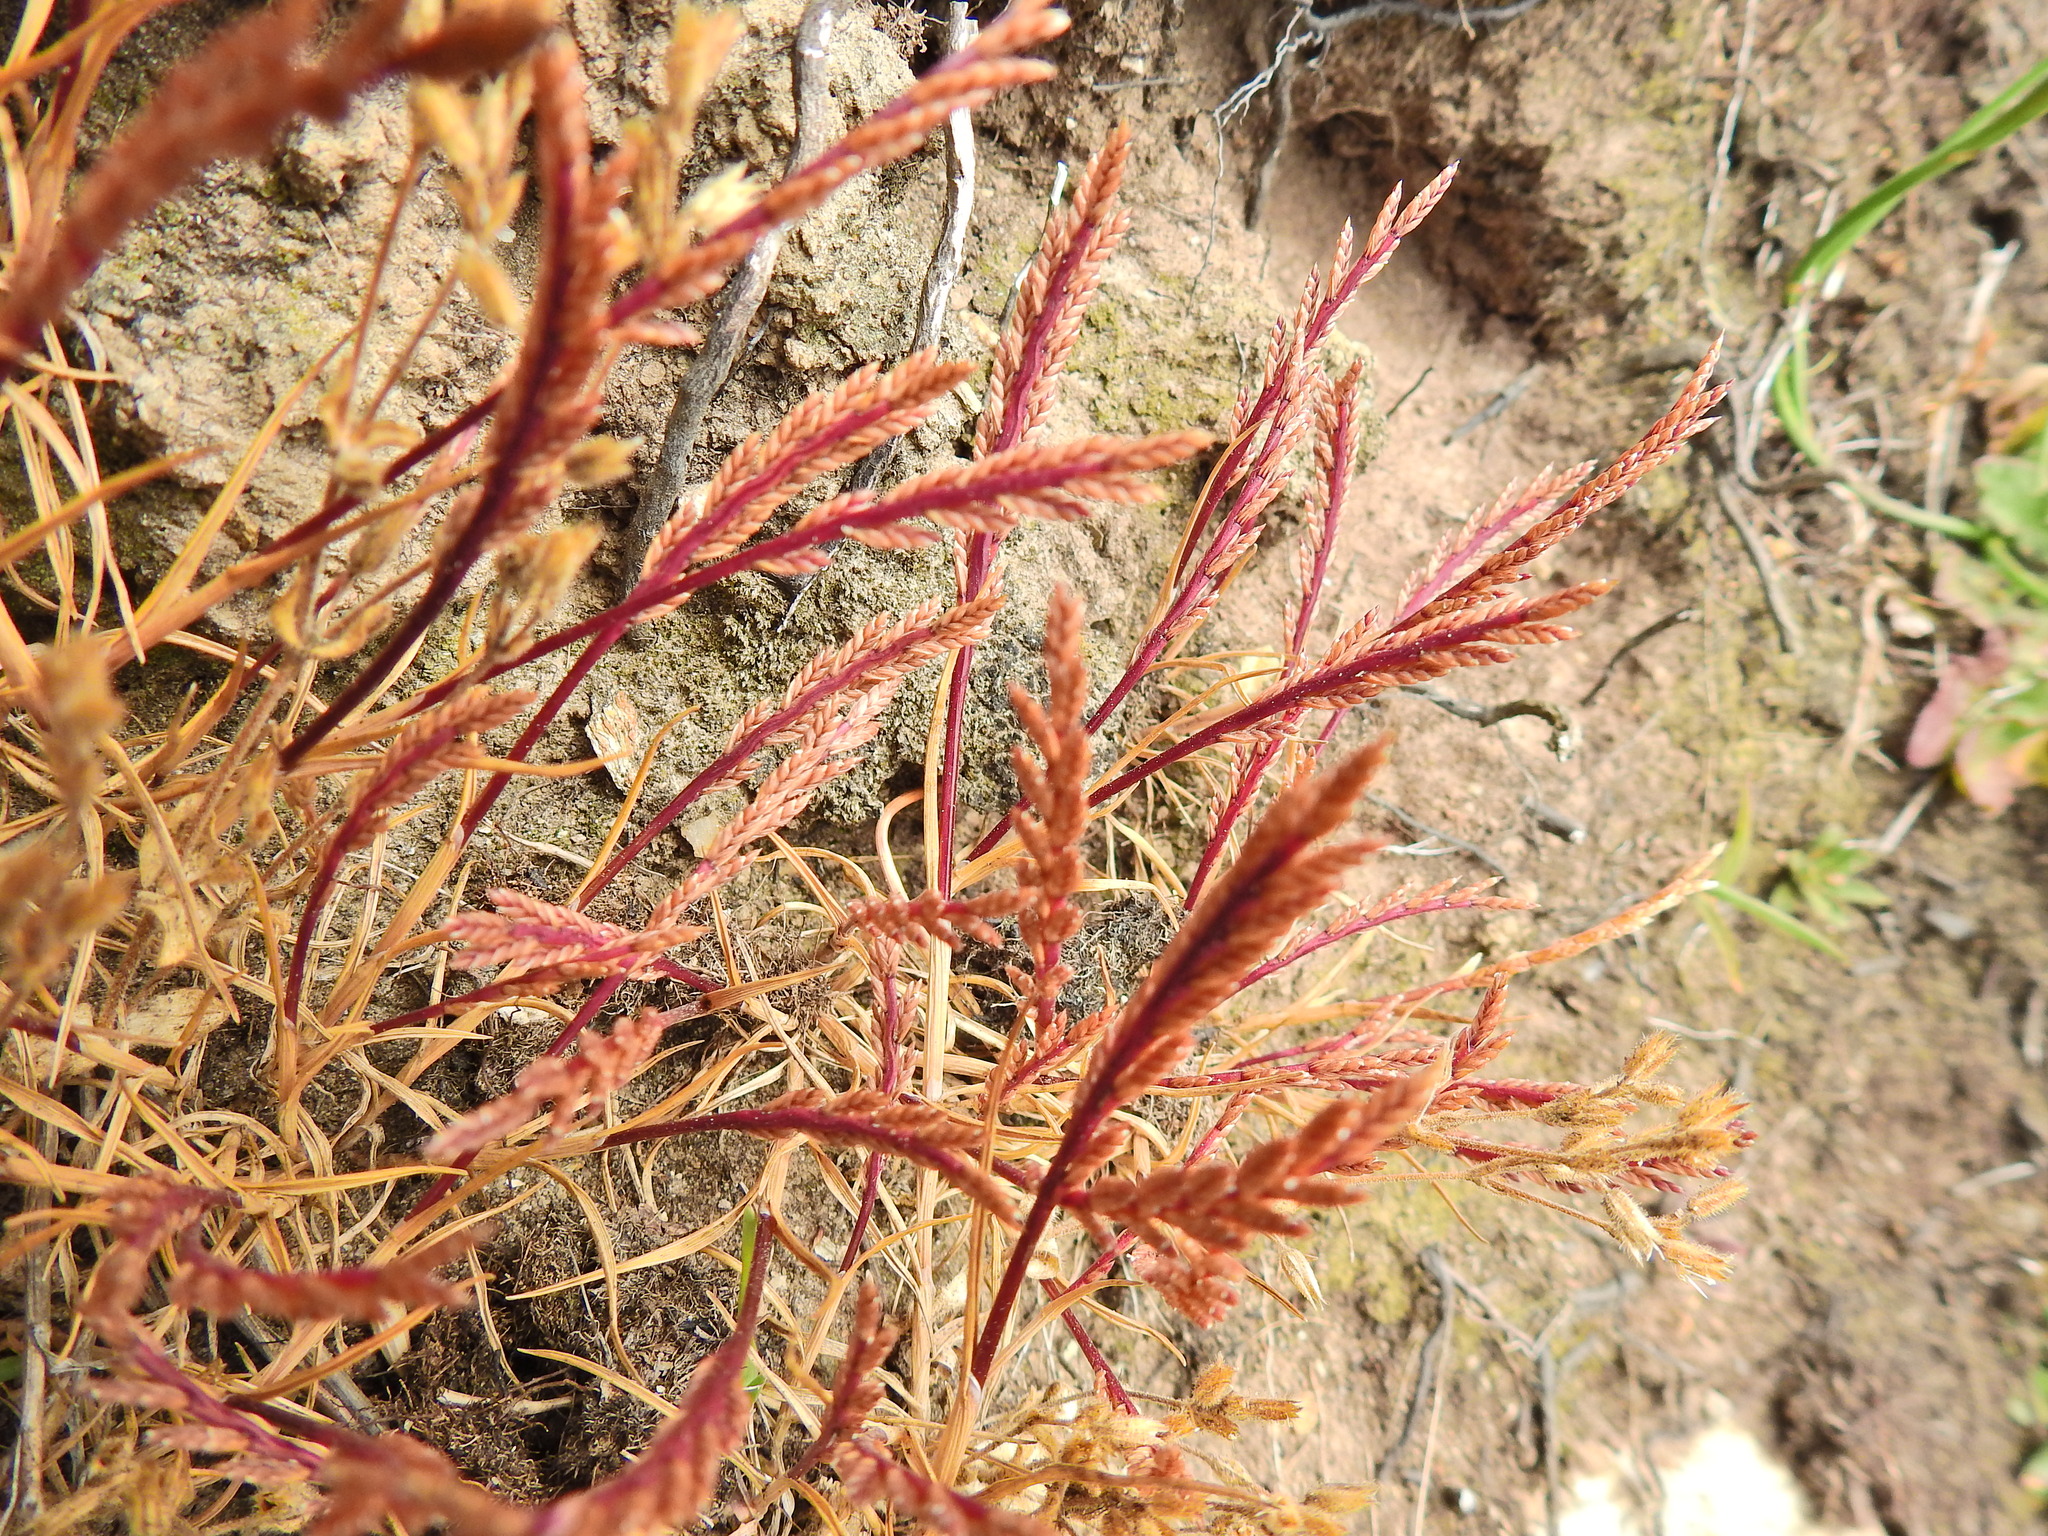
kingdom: Plantae
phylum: Tracheophyta
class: Liliopsida
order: Poales
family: Poaceae
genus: Catapodium
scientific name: Catapodium marinum
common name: Sea fern-grass
